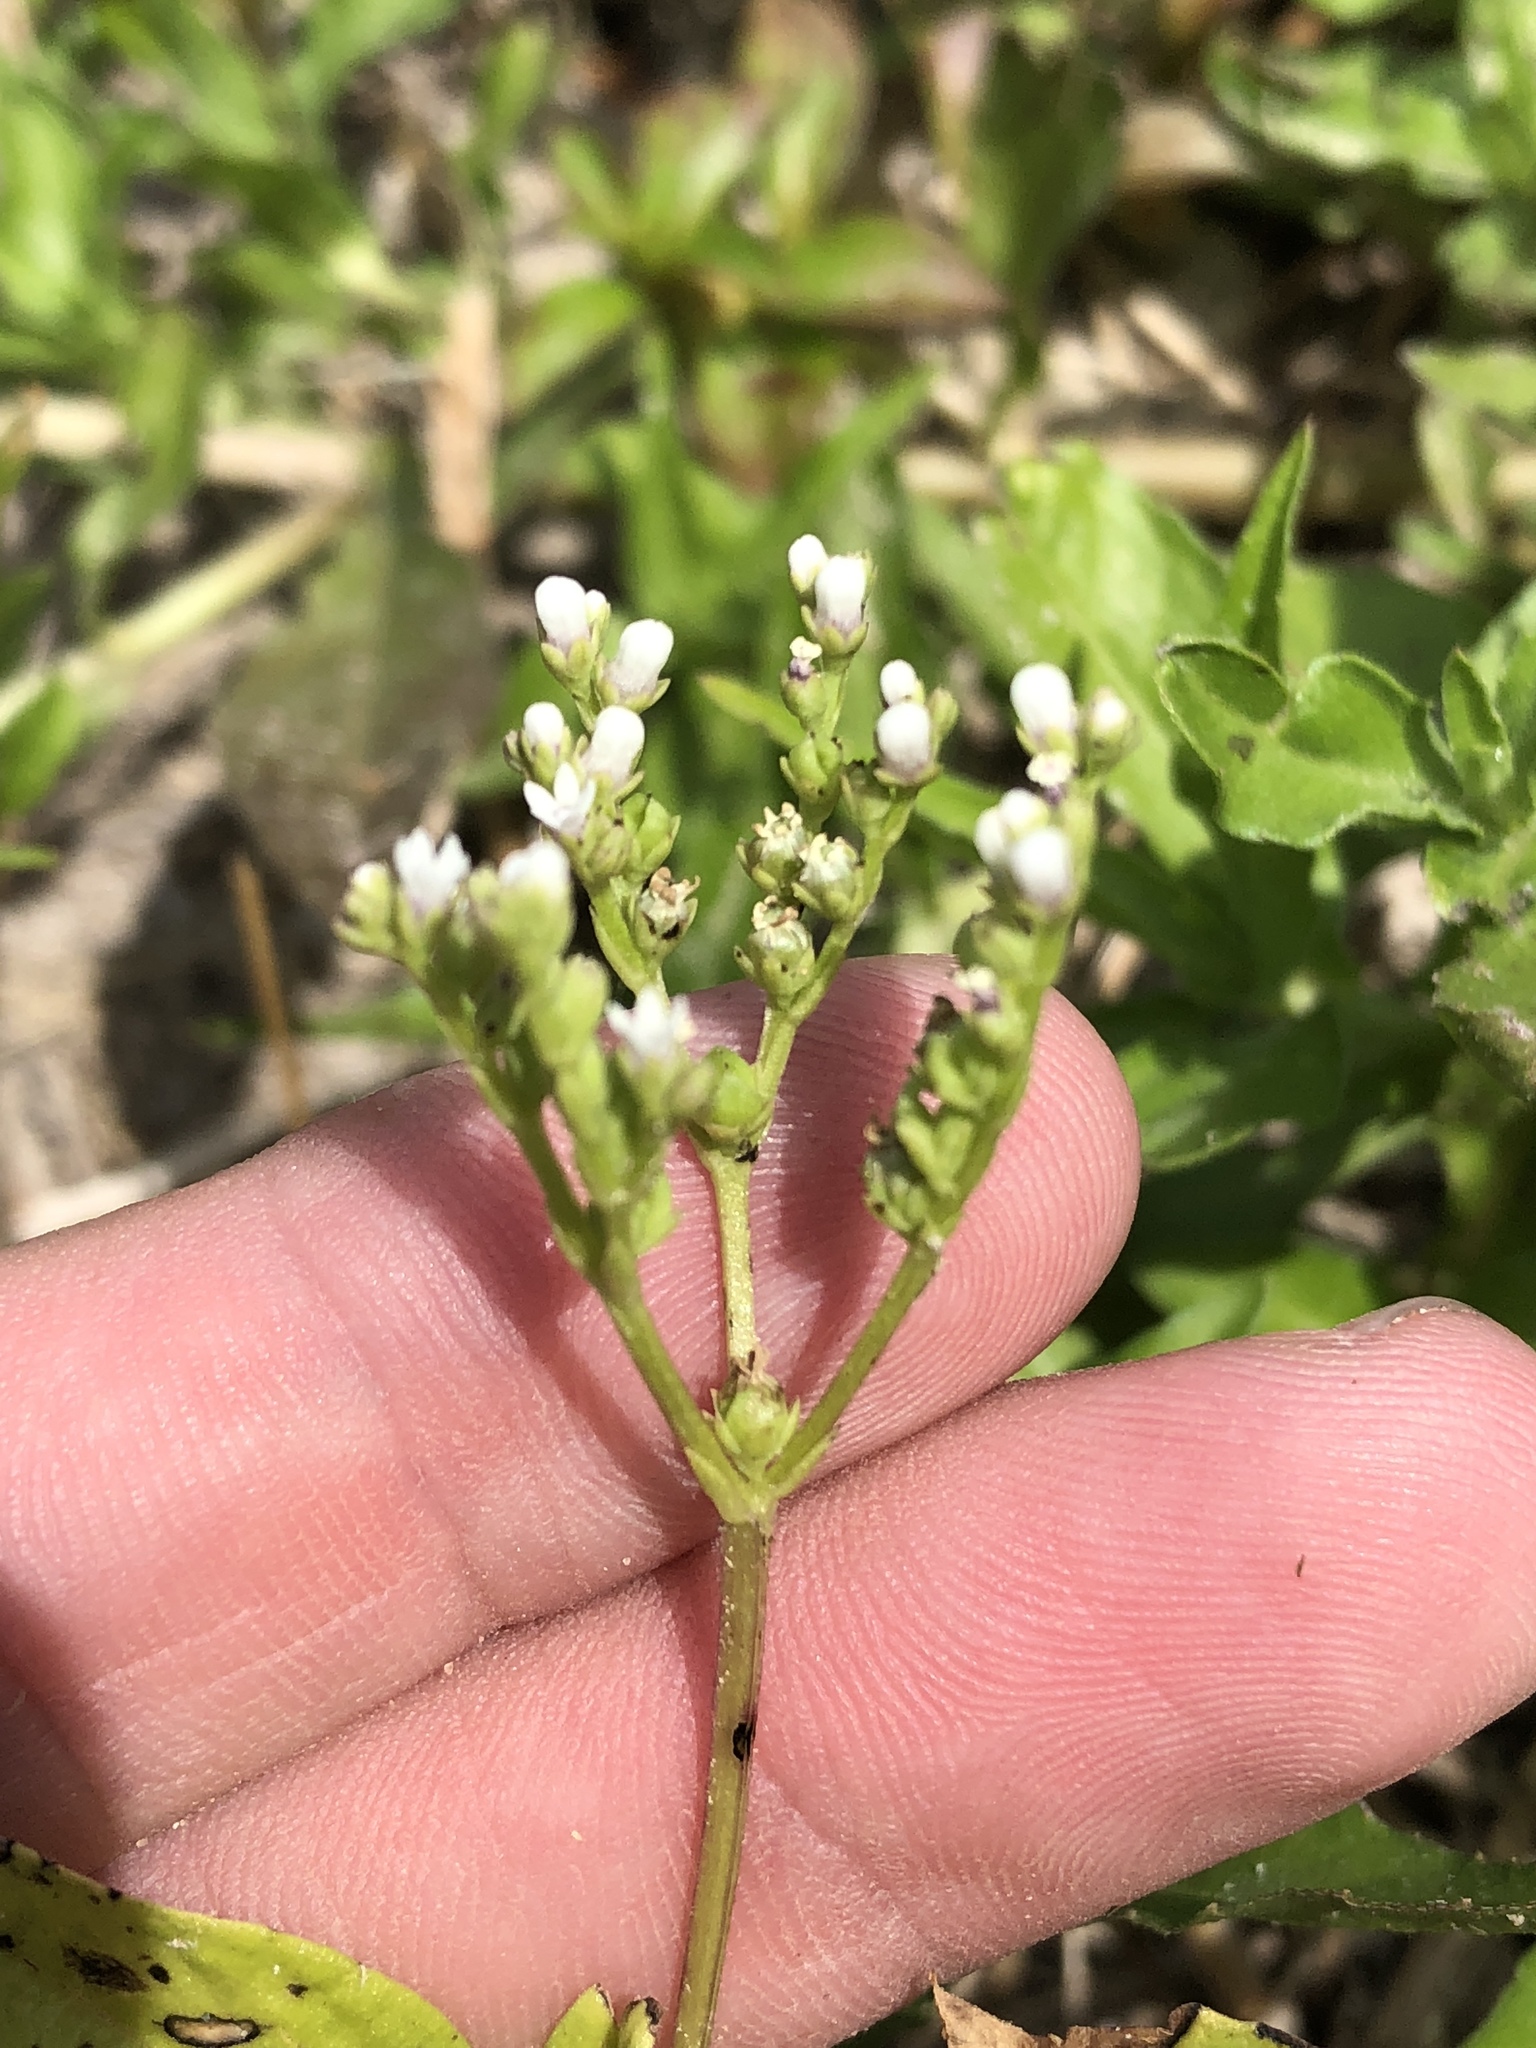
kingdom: Plantae
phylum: Tracheophyta
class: Magnoliopsida
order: Gentianales
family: Loganiaceae
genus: Mitreola
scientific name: Mitreola petiolata
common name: Lax hornpod
